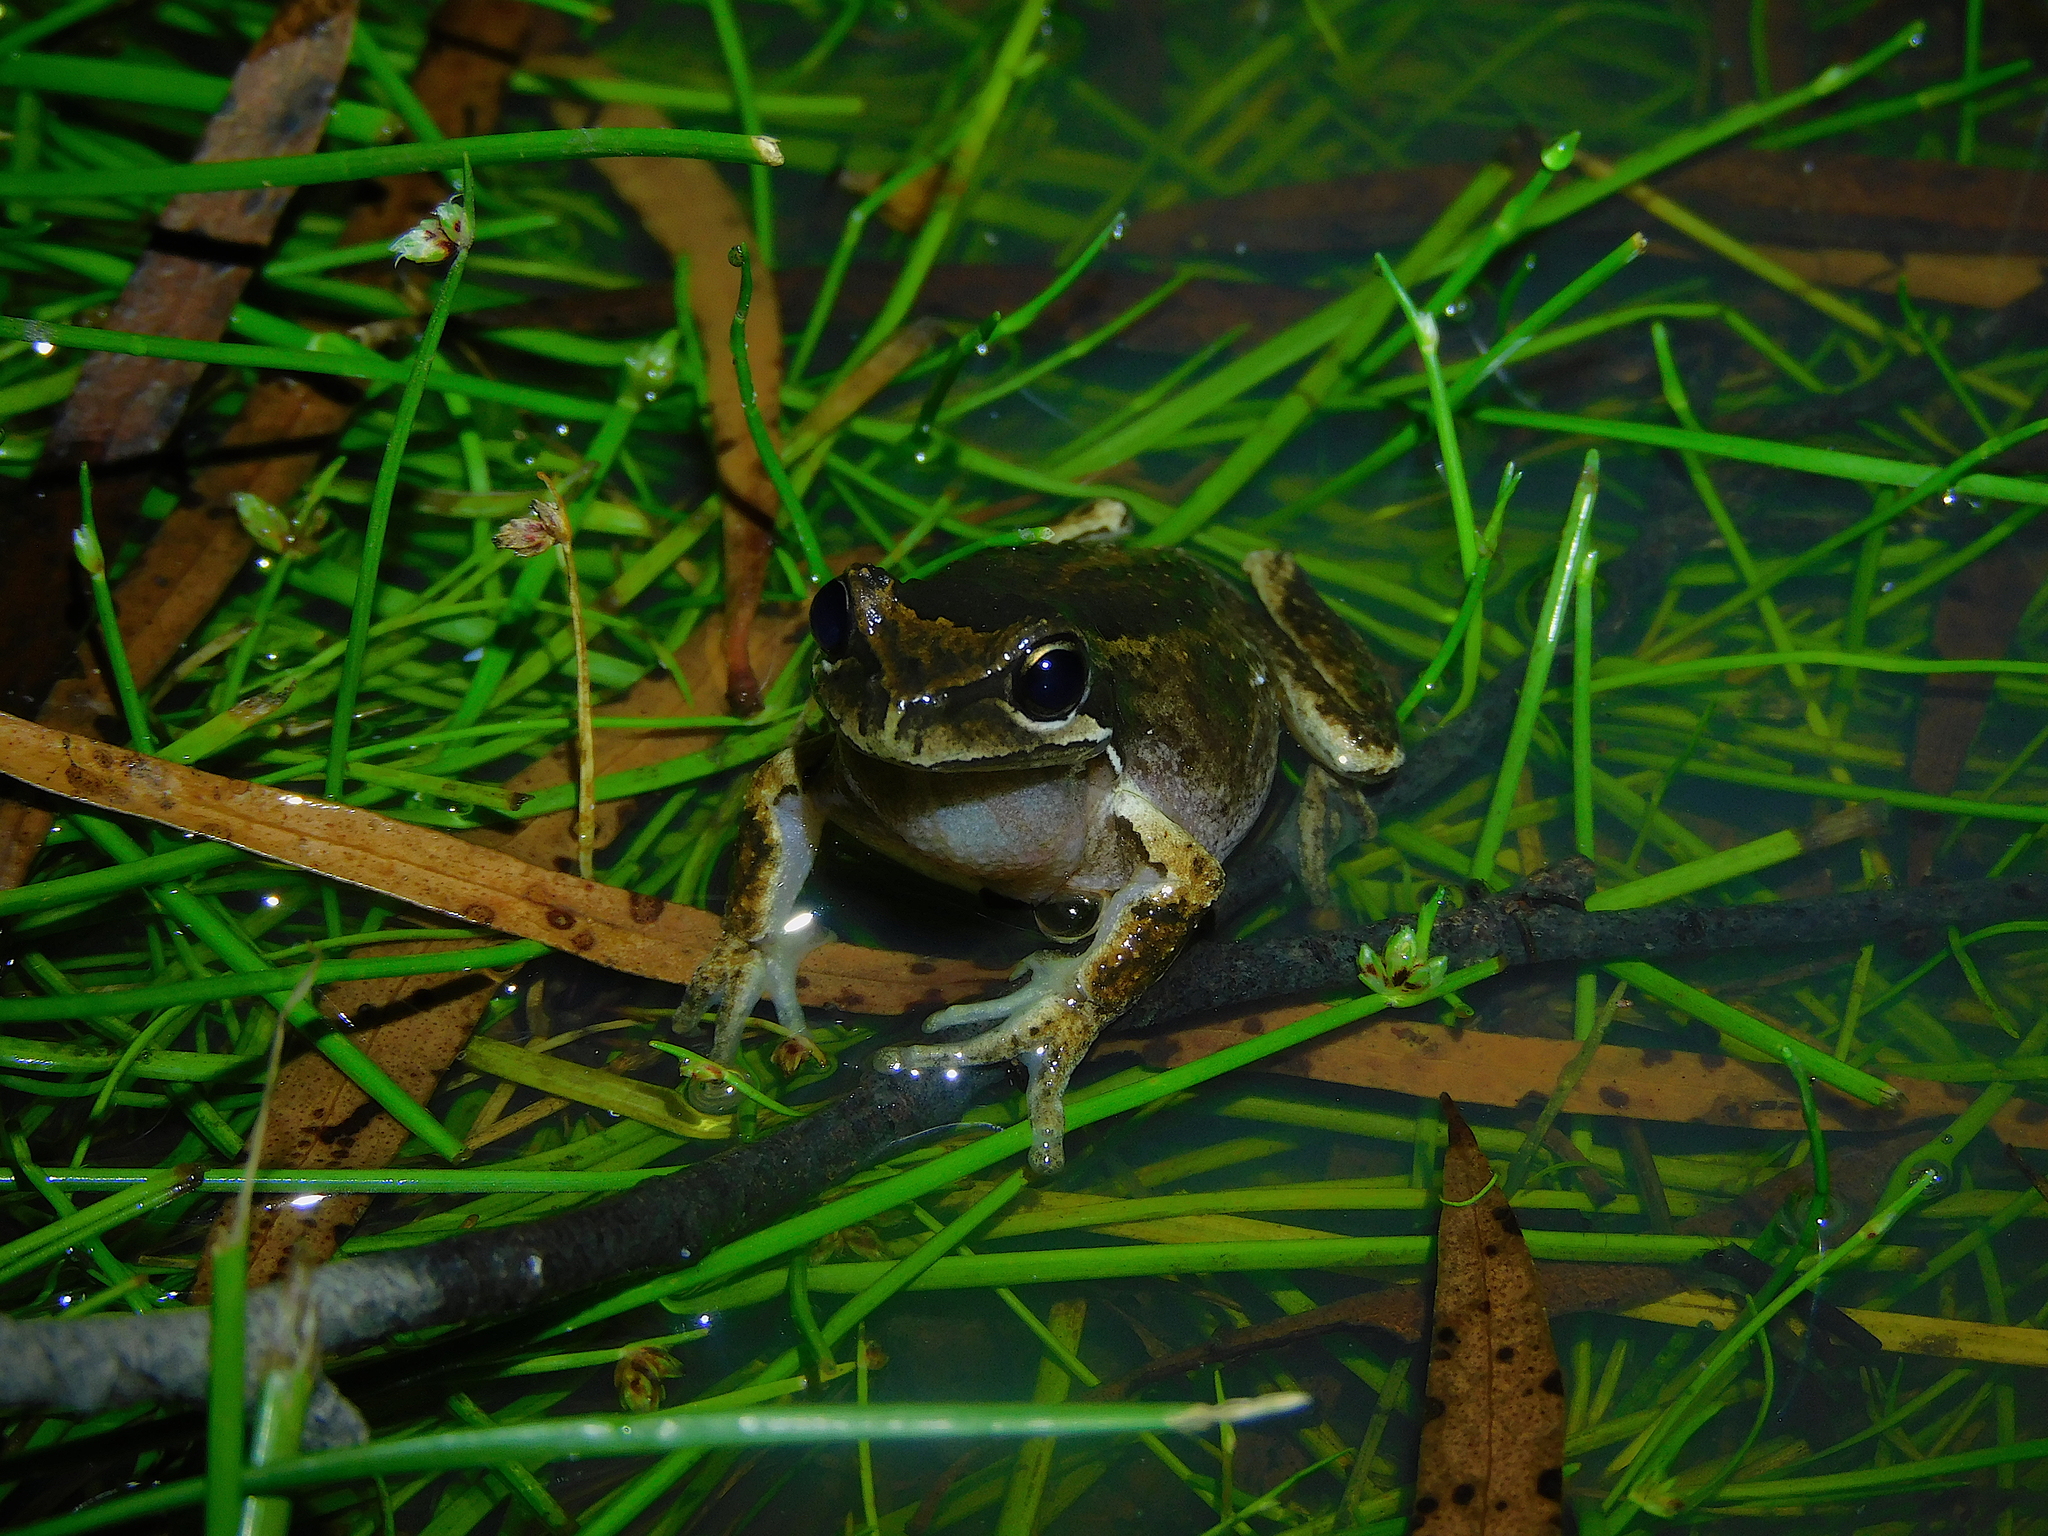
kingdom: Animalia
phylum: Chordata
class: Amphibia
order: Anura
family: Pelodryadidae
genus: Litoria
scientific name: Litoria ewingii
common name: Southern brown tree frog
